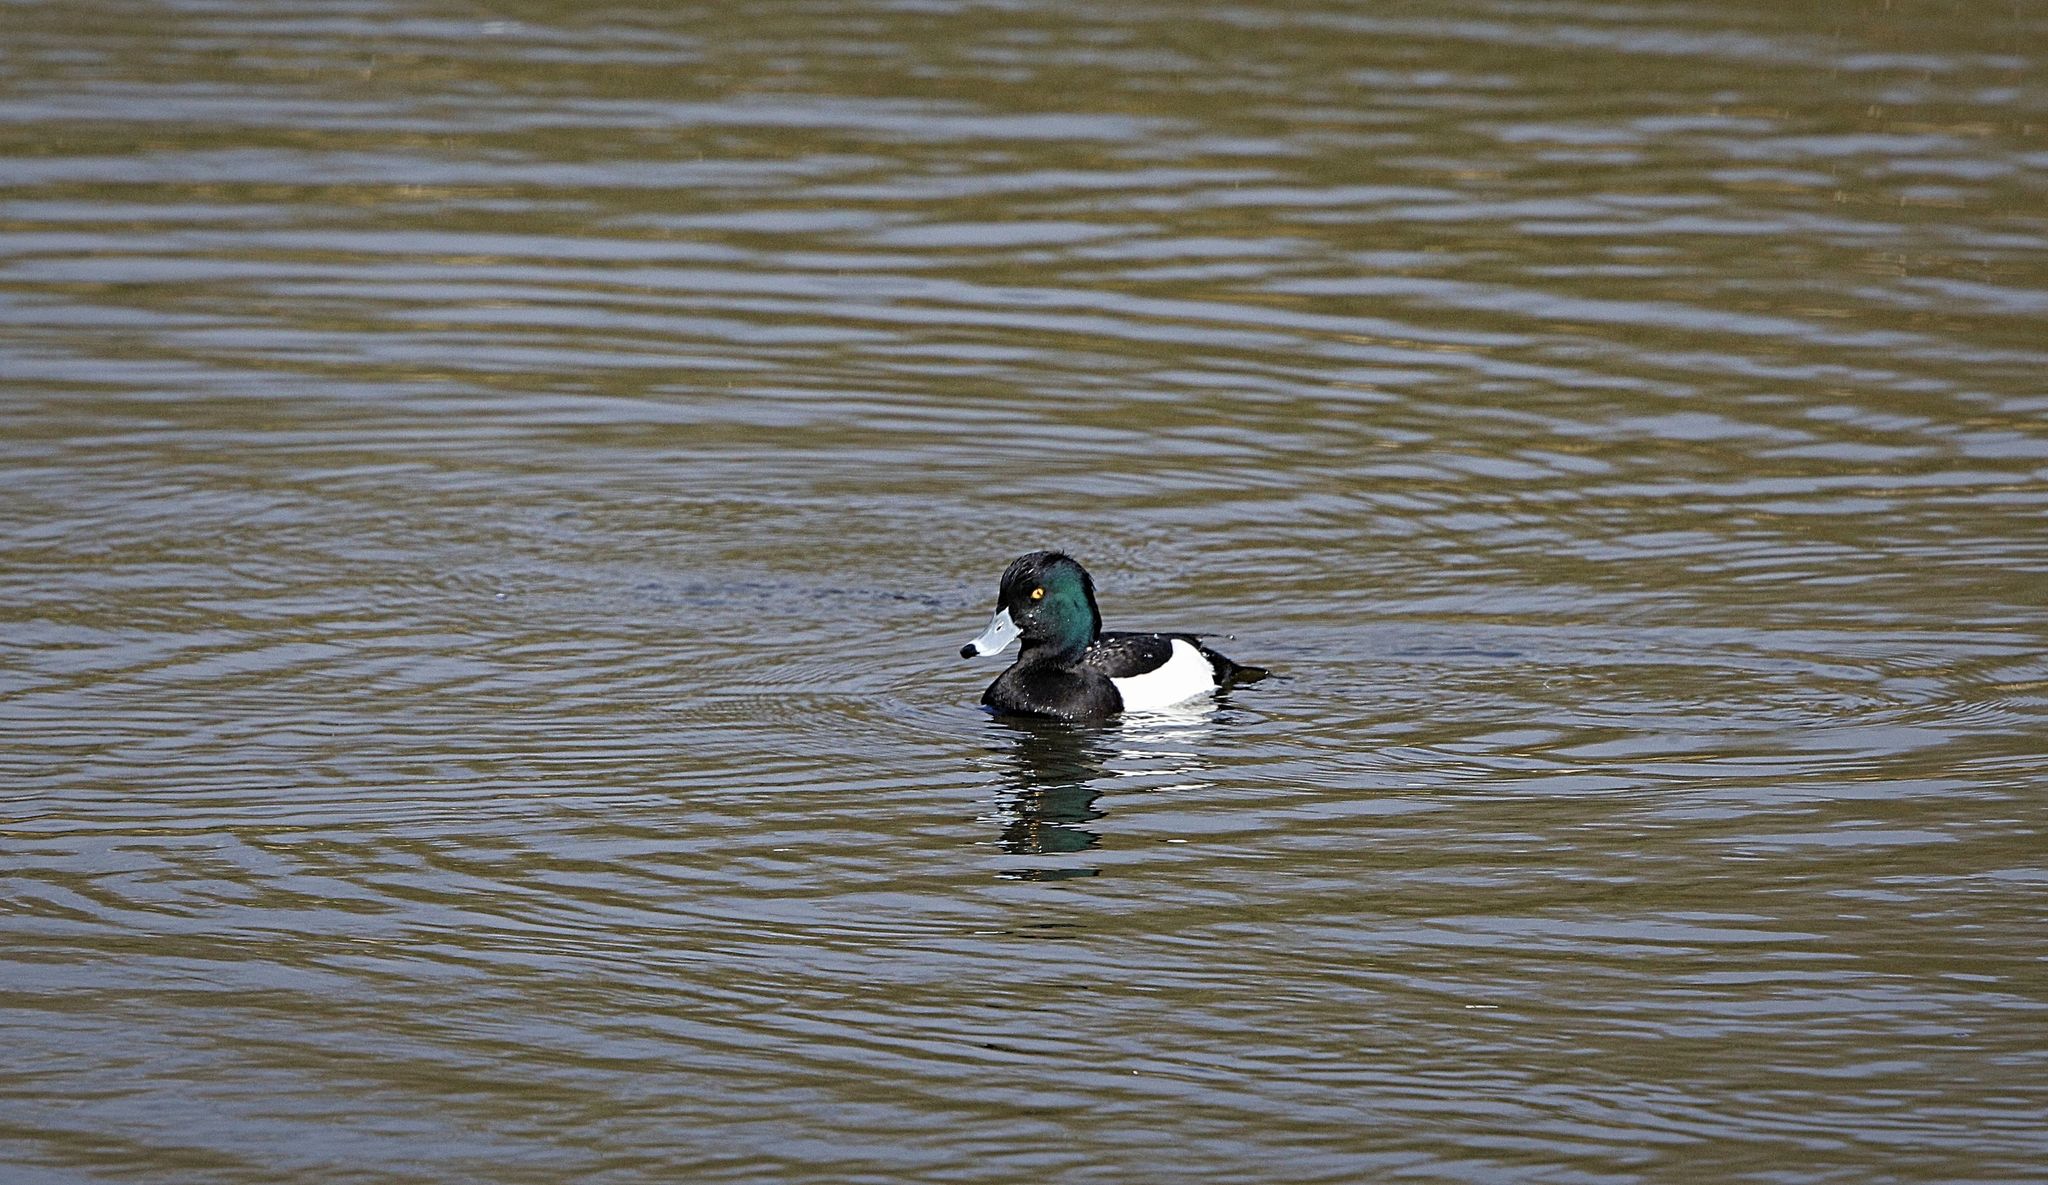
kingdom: Animalia
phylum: Chordata
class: Aves
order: Anseriformes
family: Anatidae
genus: Aythya
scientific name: Aythya fuligula
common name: Tufted duck
